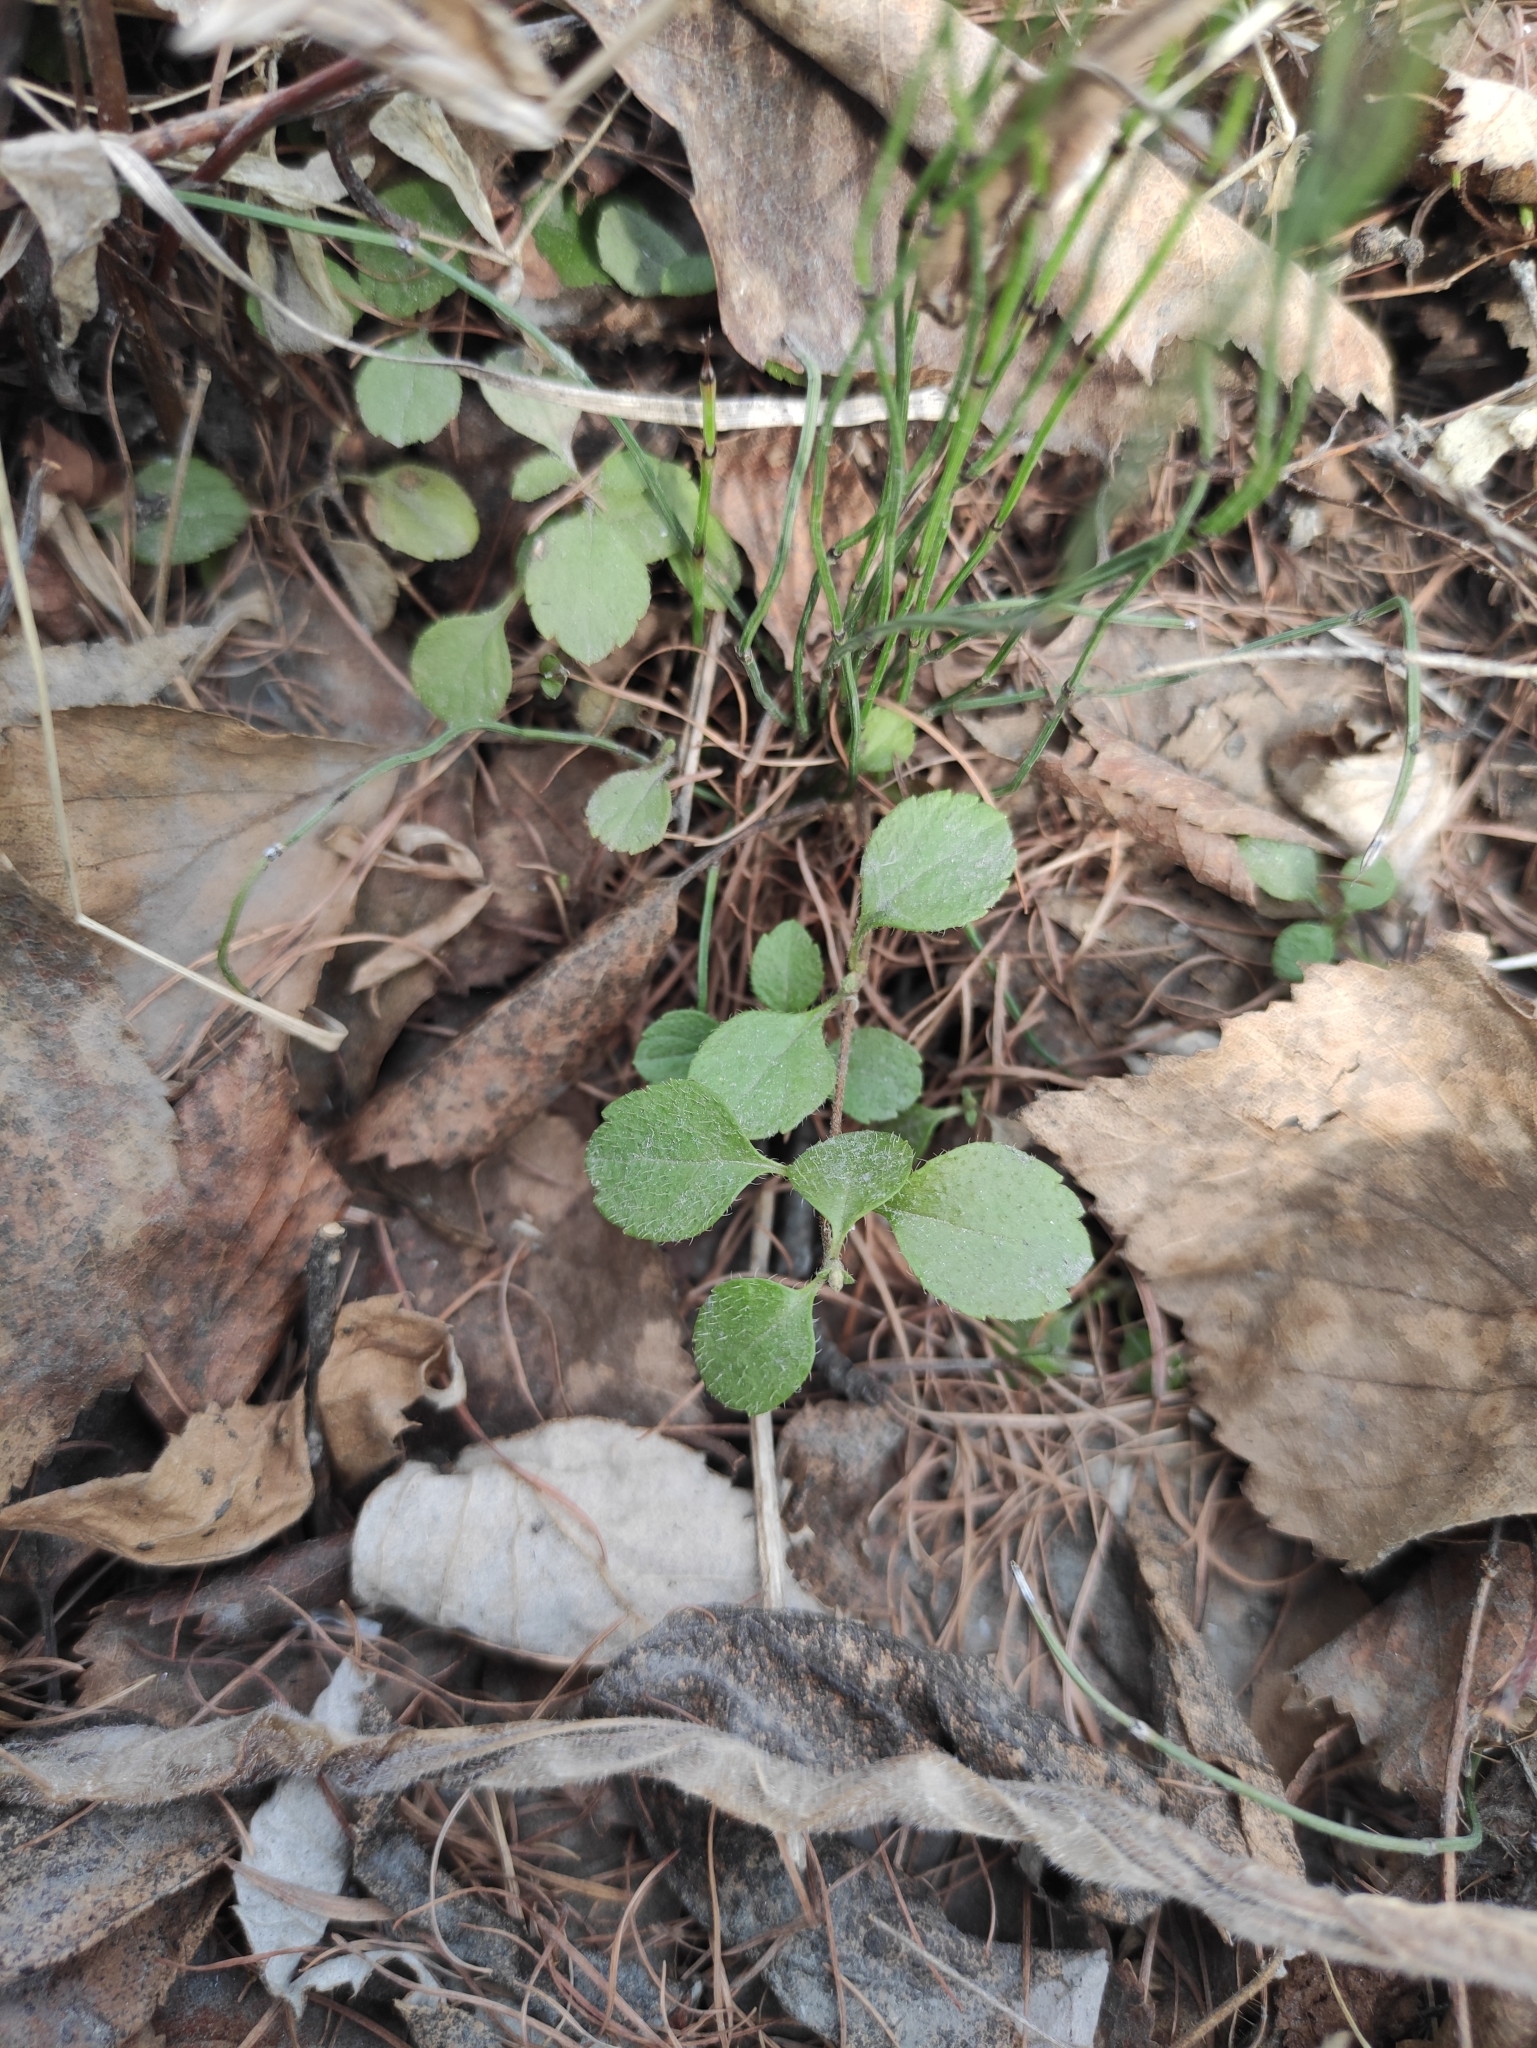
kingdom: Plantae
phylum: Tracheophyta
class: Magnoliopsida
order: Dipsacales
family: Caprifoliaceae
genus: Linnaea
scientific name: Linnaea borealis
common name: Twinflower
